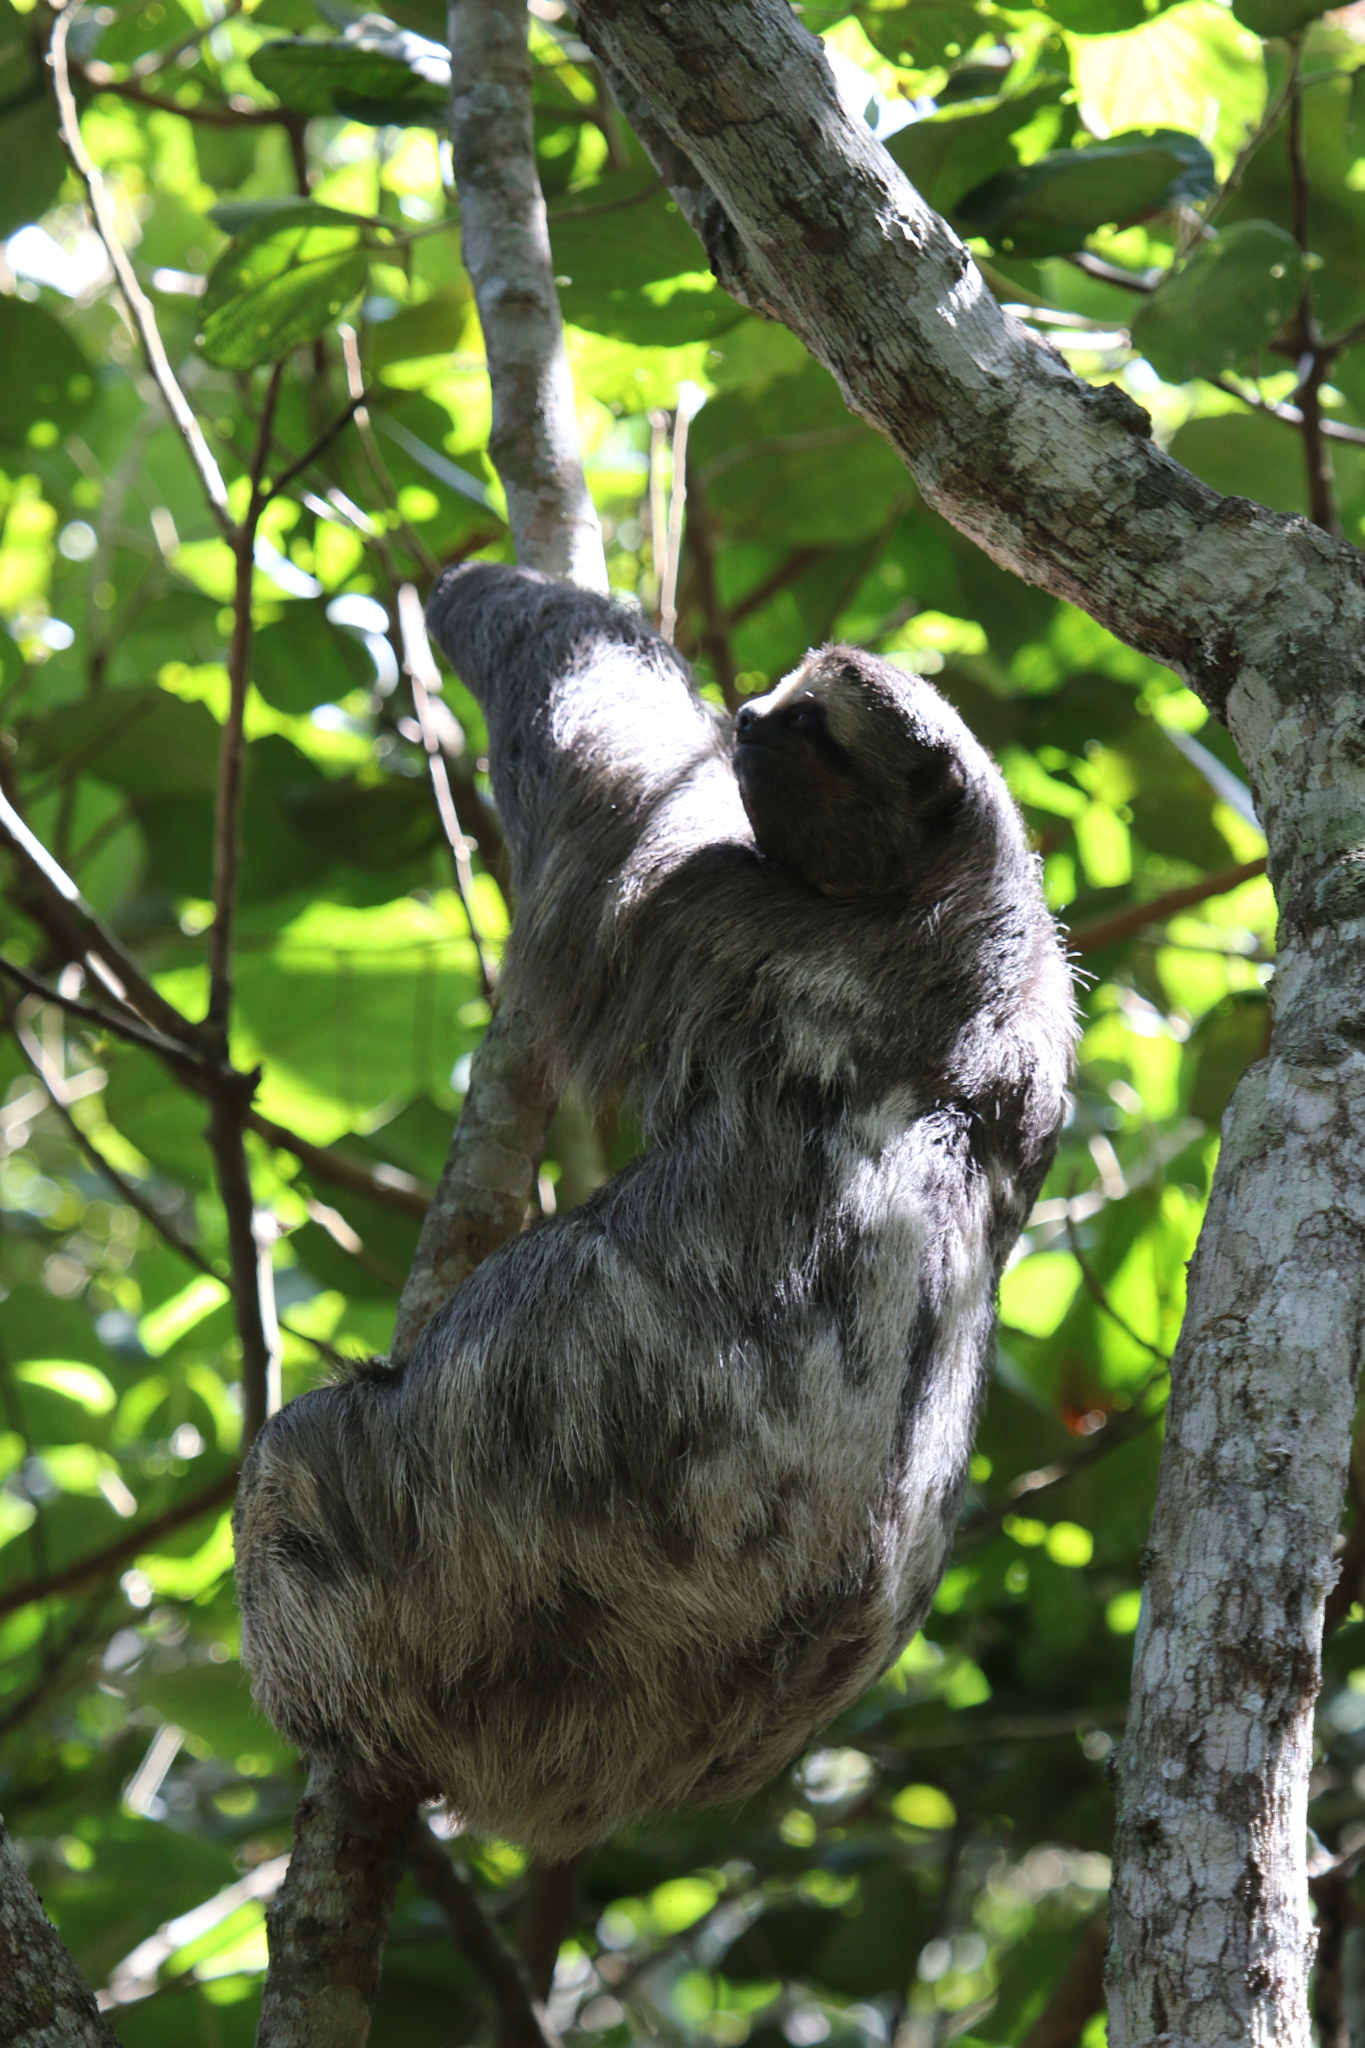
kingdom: Animalia
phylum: Chordata
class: Mammalia
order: Pilosa
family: Bradypodidae
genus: Bradypus
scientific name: Bradypus variegatus
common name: Brown-throated three-toed sloth
